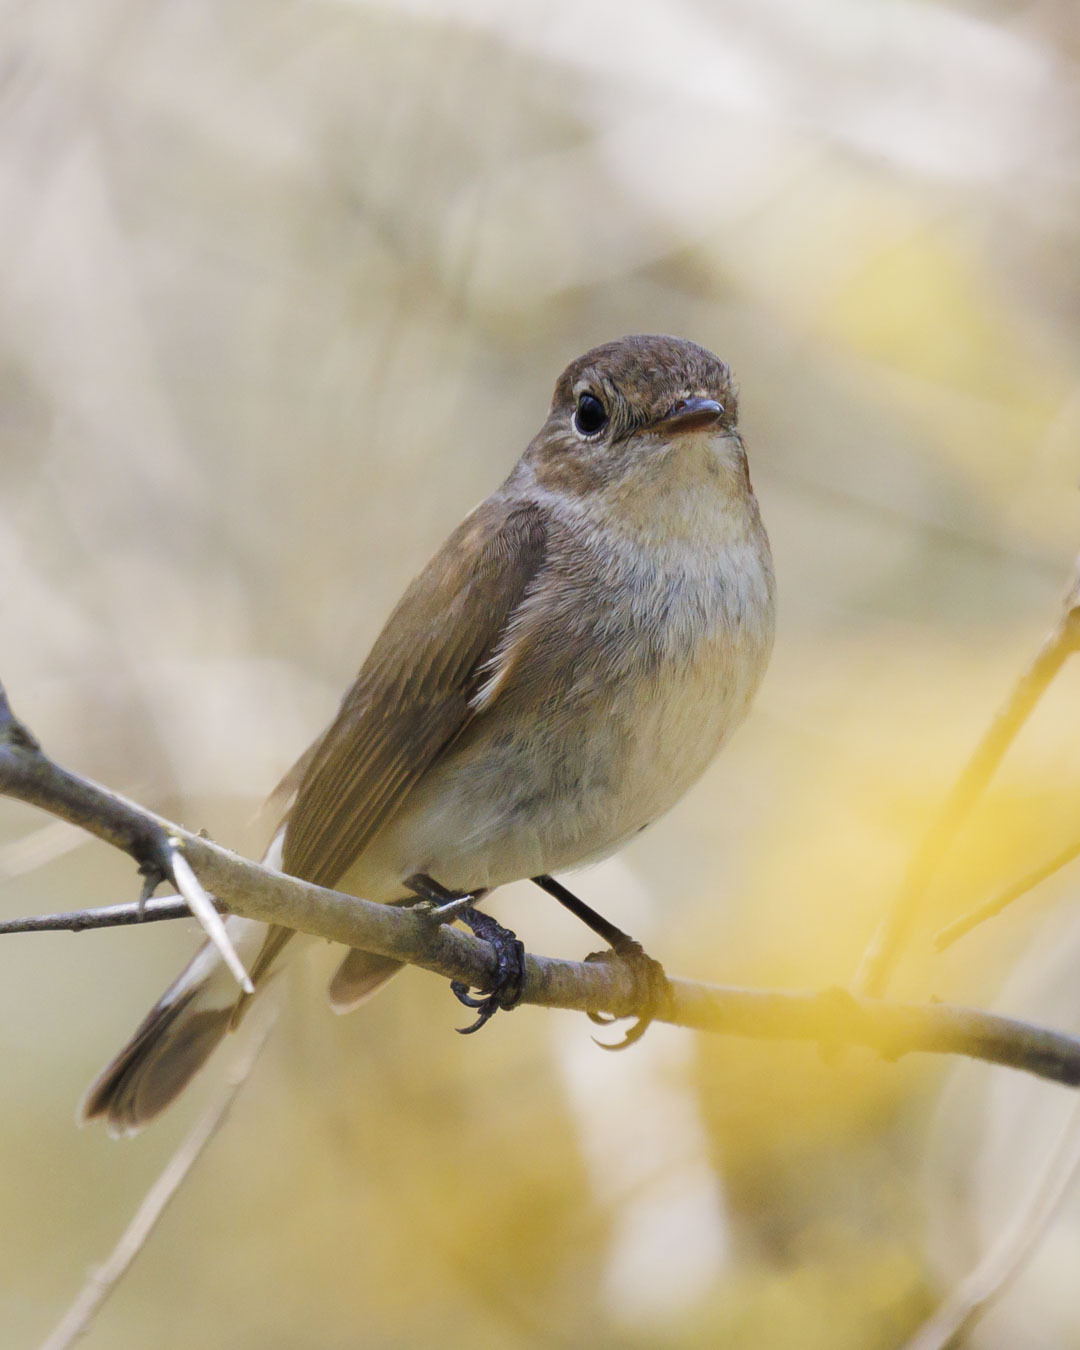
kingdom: Animalia
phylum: Chordata
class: Aves
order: Passeriformes
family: Muscicapidae
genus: Ficedula
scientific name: Ficedula parva
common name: Red-breasted flycatcher
